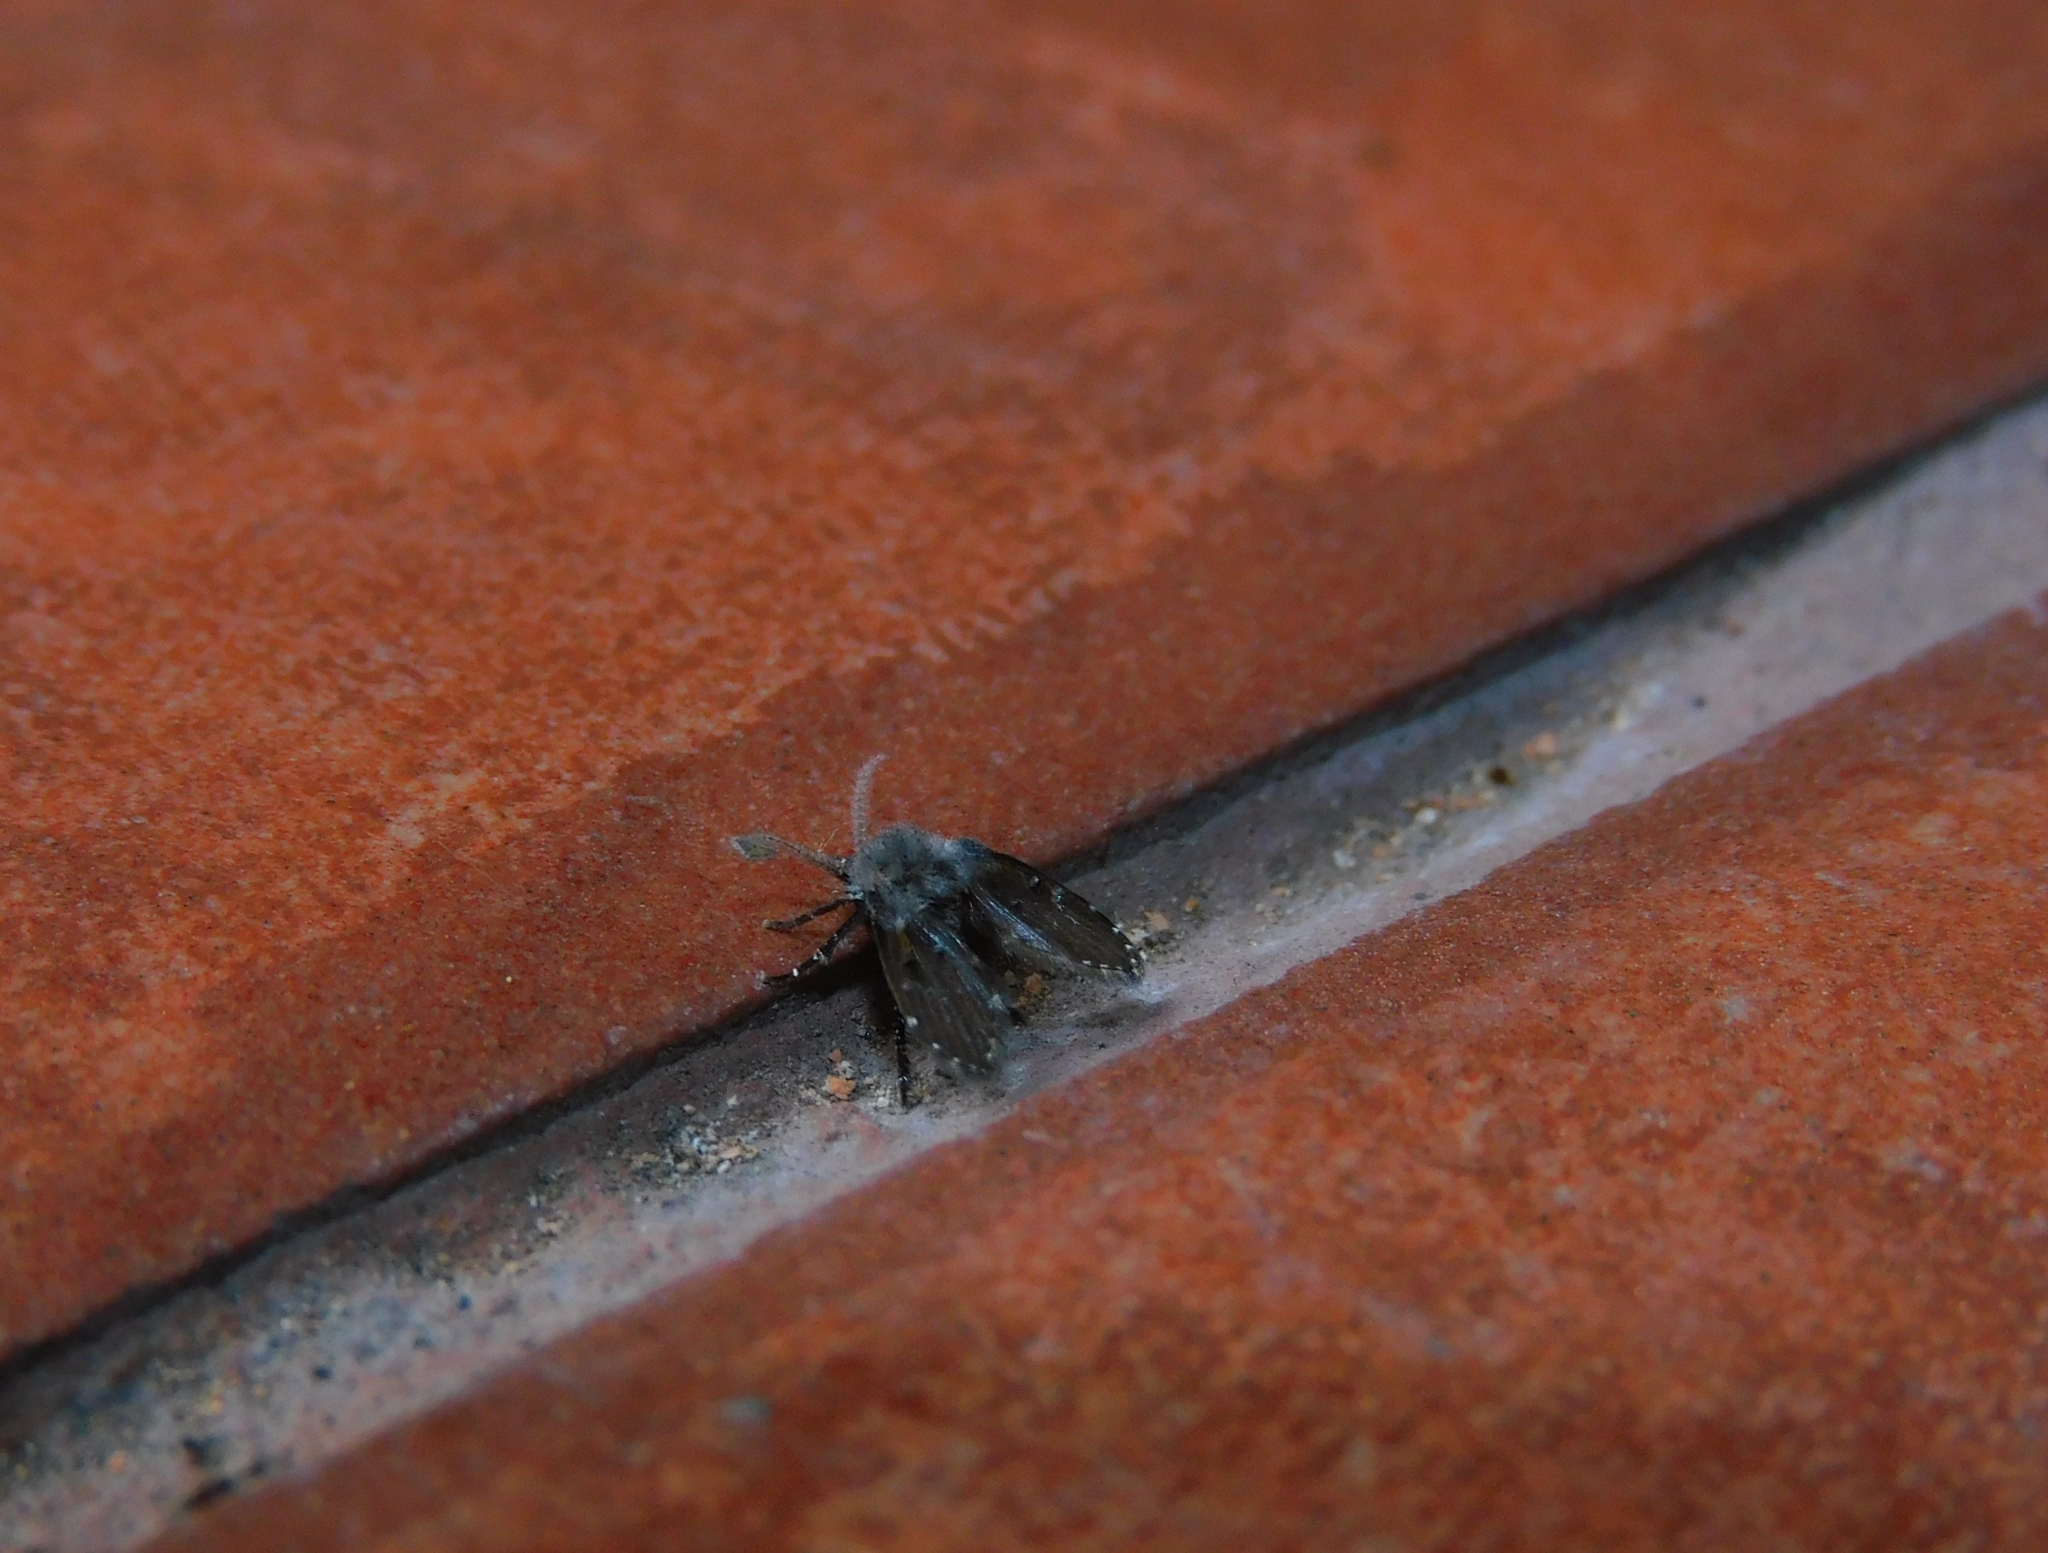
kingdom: Animalia
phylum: Arthropoda
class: Insecta
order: Diptera
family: Psychodidae
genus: Clogmia
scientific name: Clogmia albipunctatus
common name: White-spotted moth fly
